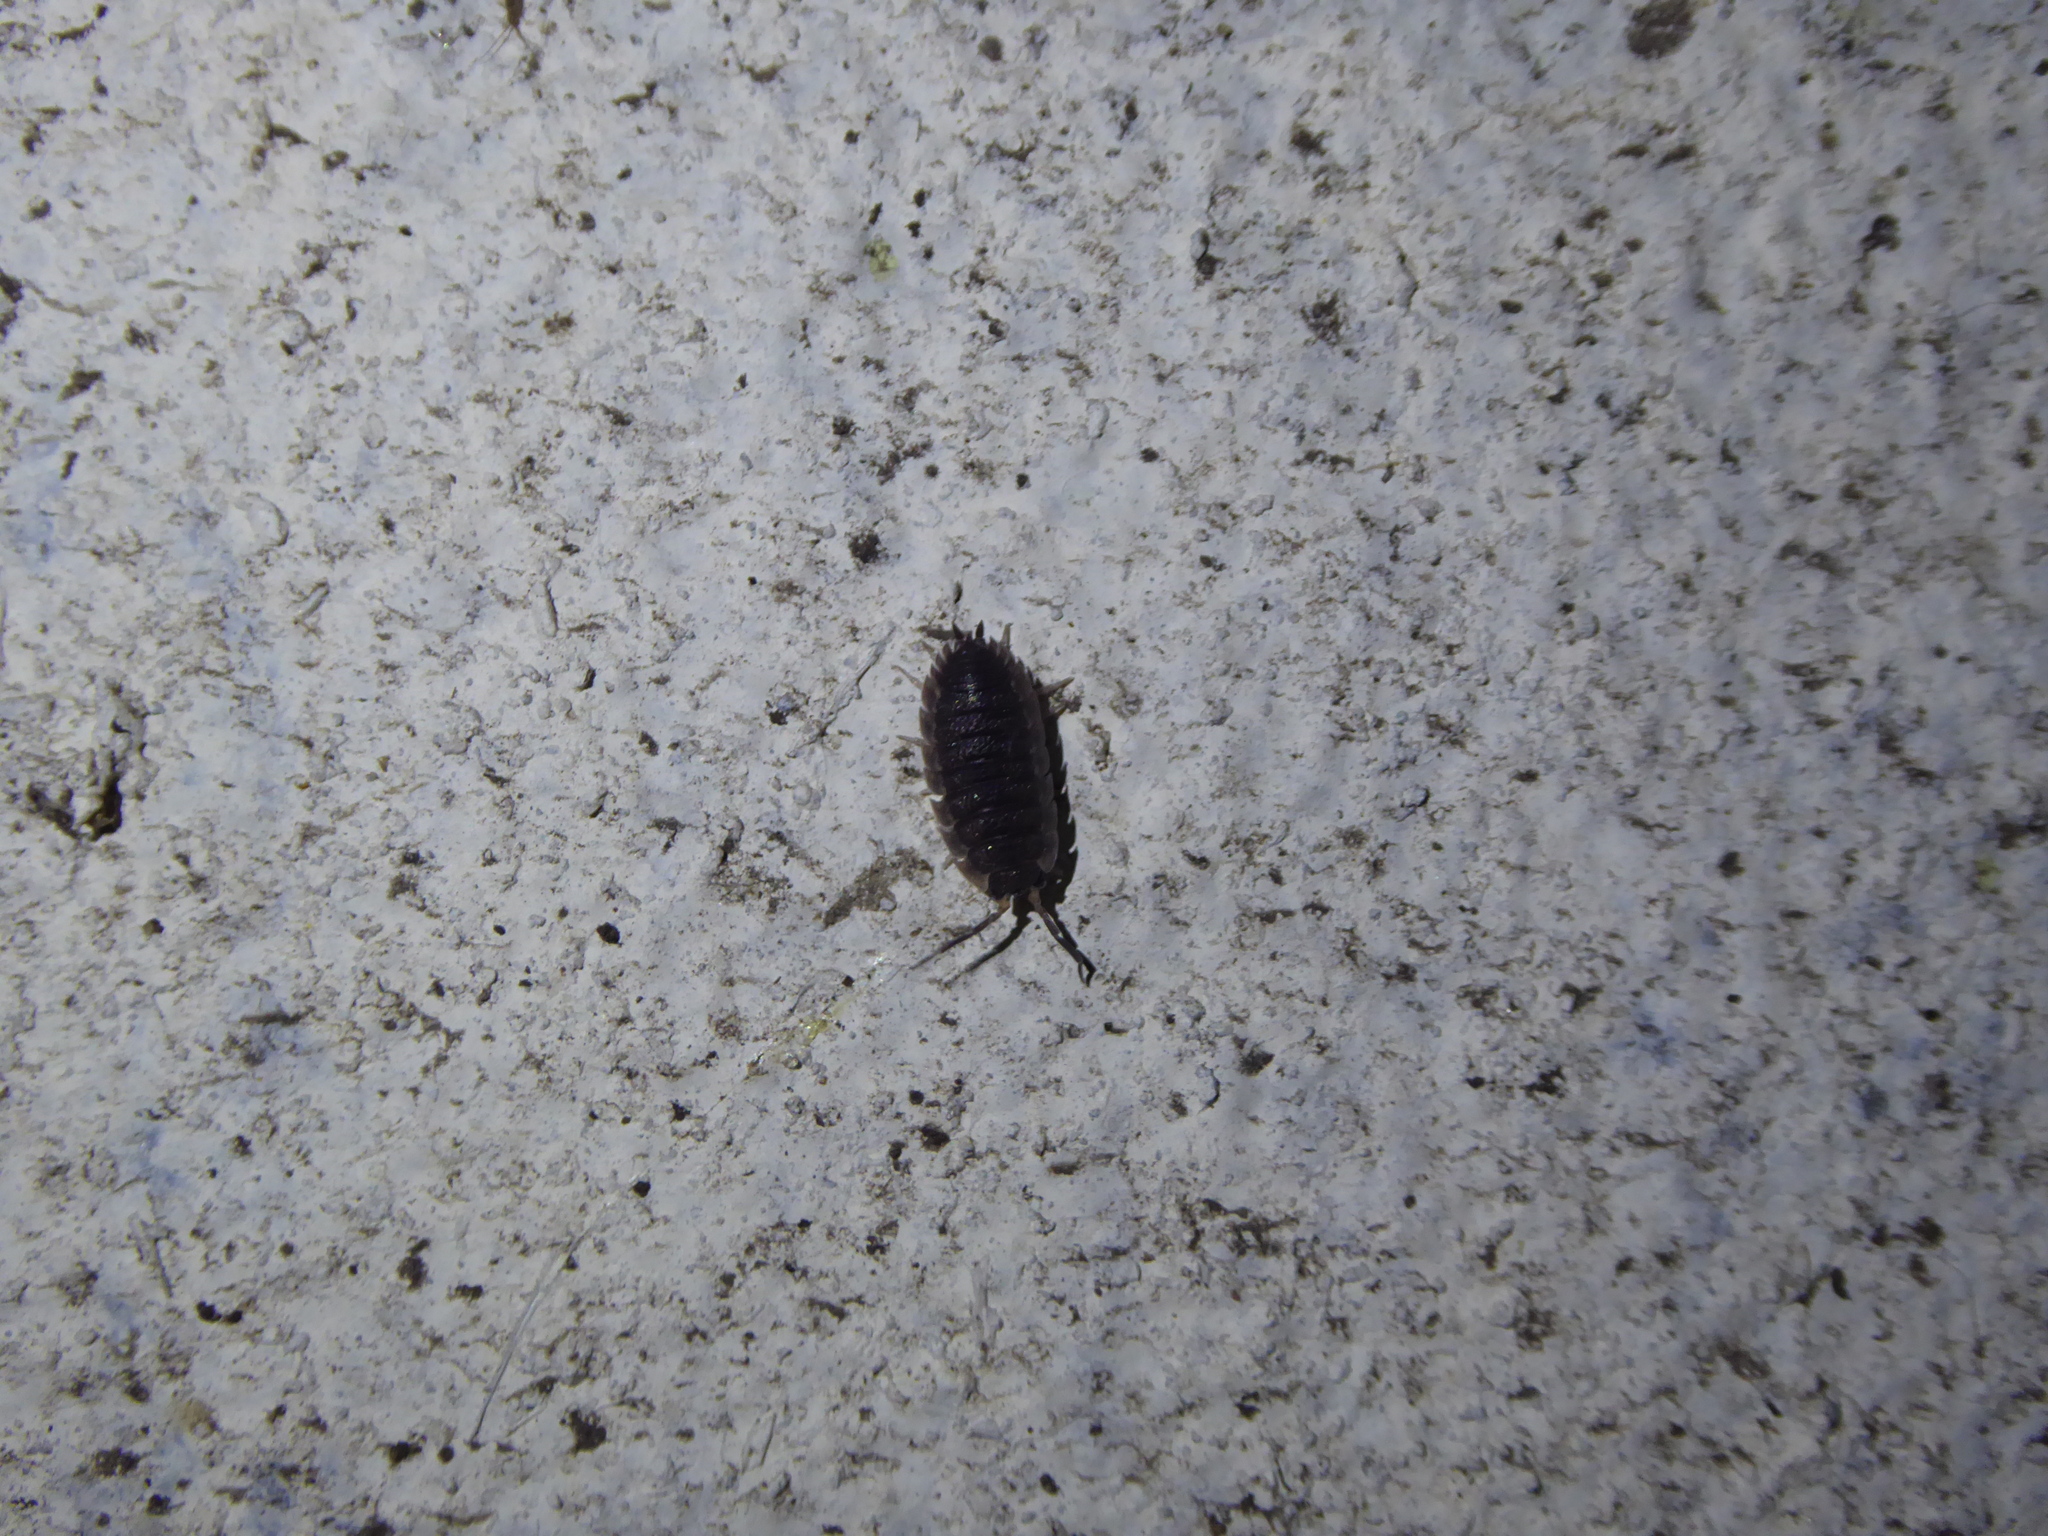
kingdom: Animalia
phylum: Arthropoda
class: Malacostraca
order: Isopoda
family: Porcellionidae
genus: Porcellio
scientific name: Porcellio scaber
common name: Common rough woodlouse
